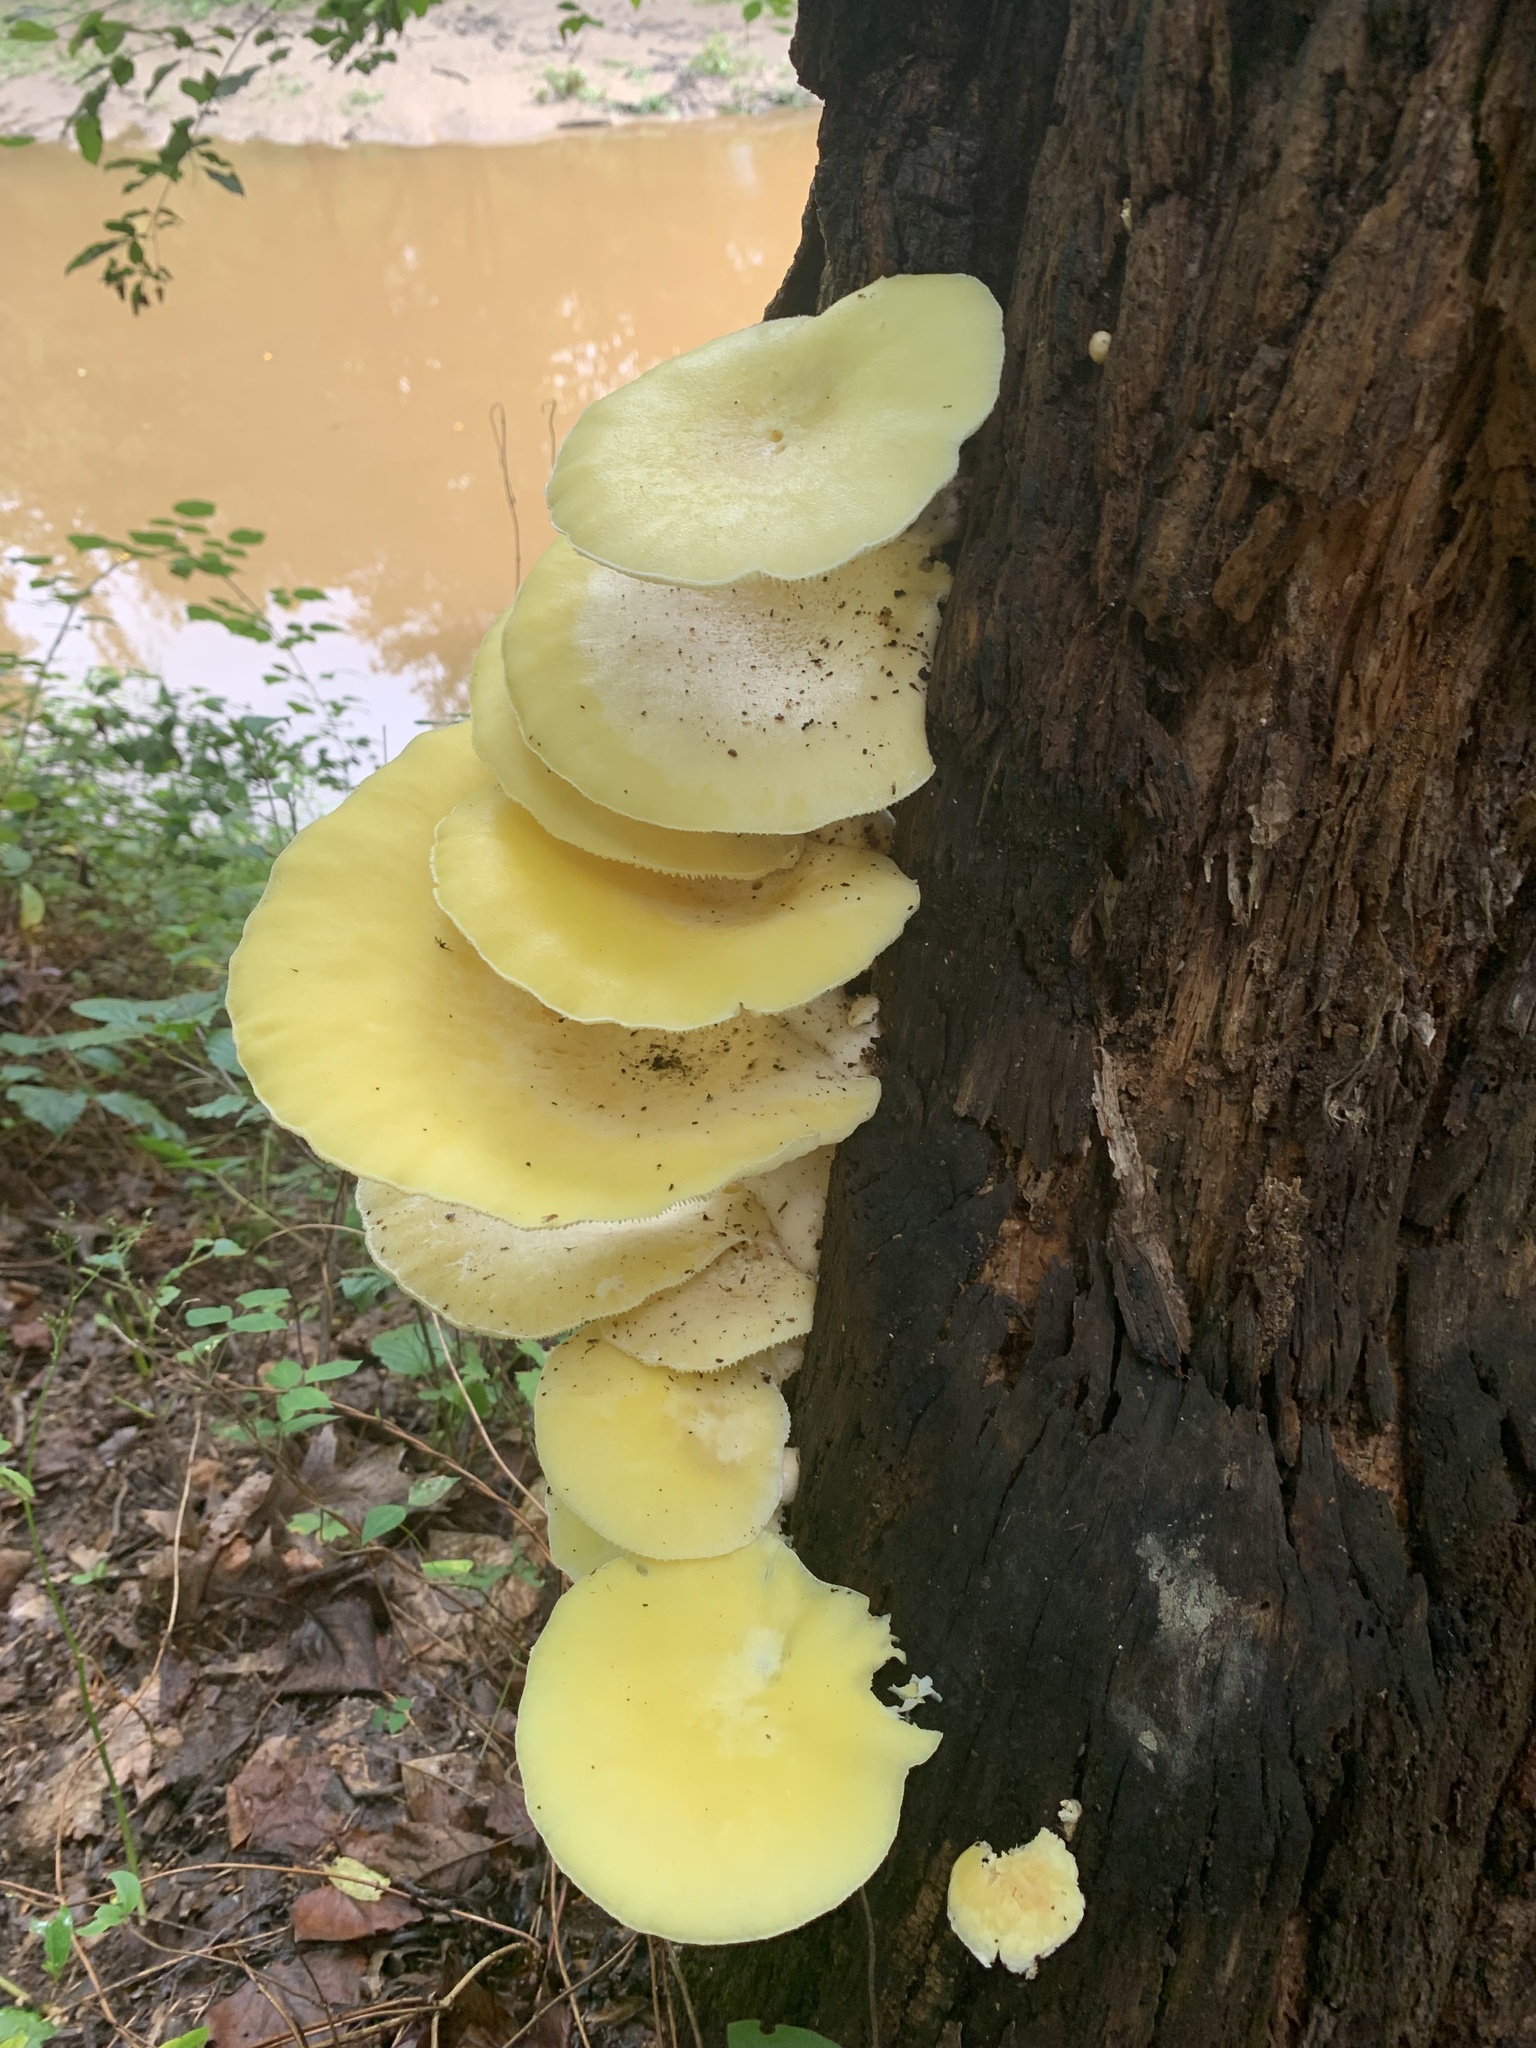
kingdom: Fungi
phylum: Basidiomycota
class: Agaricomycetes
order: Agaricales
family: Pleurotaceae
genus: Pleurotus
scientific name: Pleurotus citrinopileatus
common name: Golden oyster mushroom
